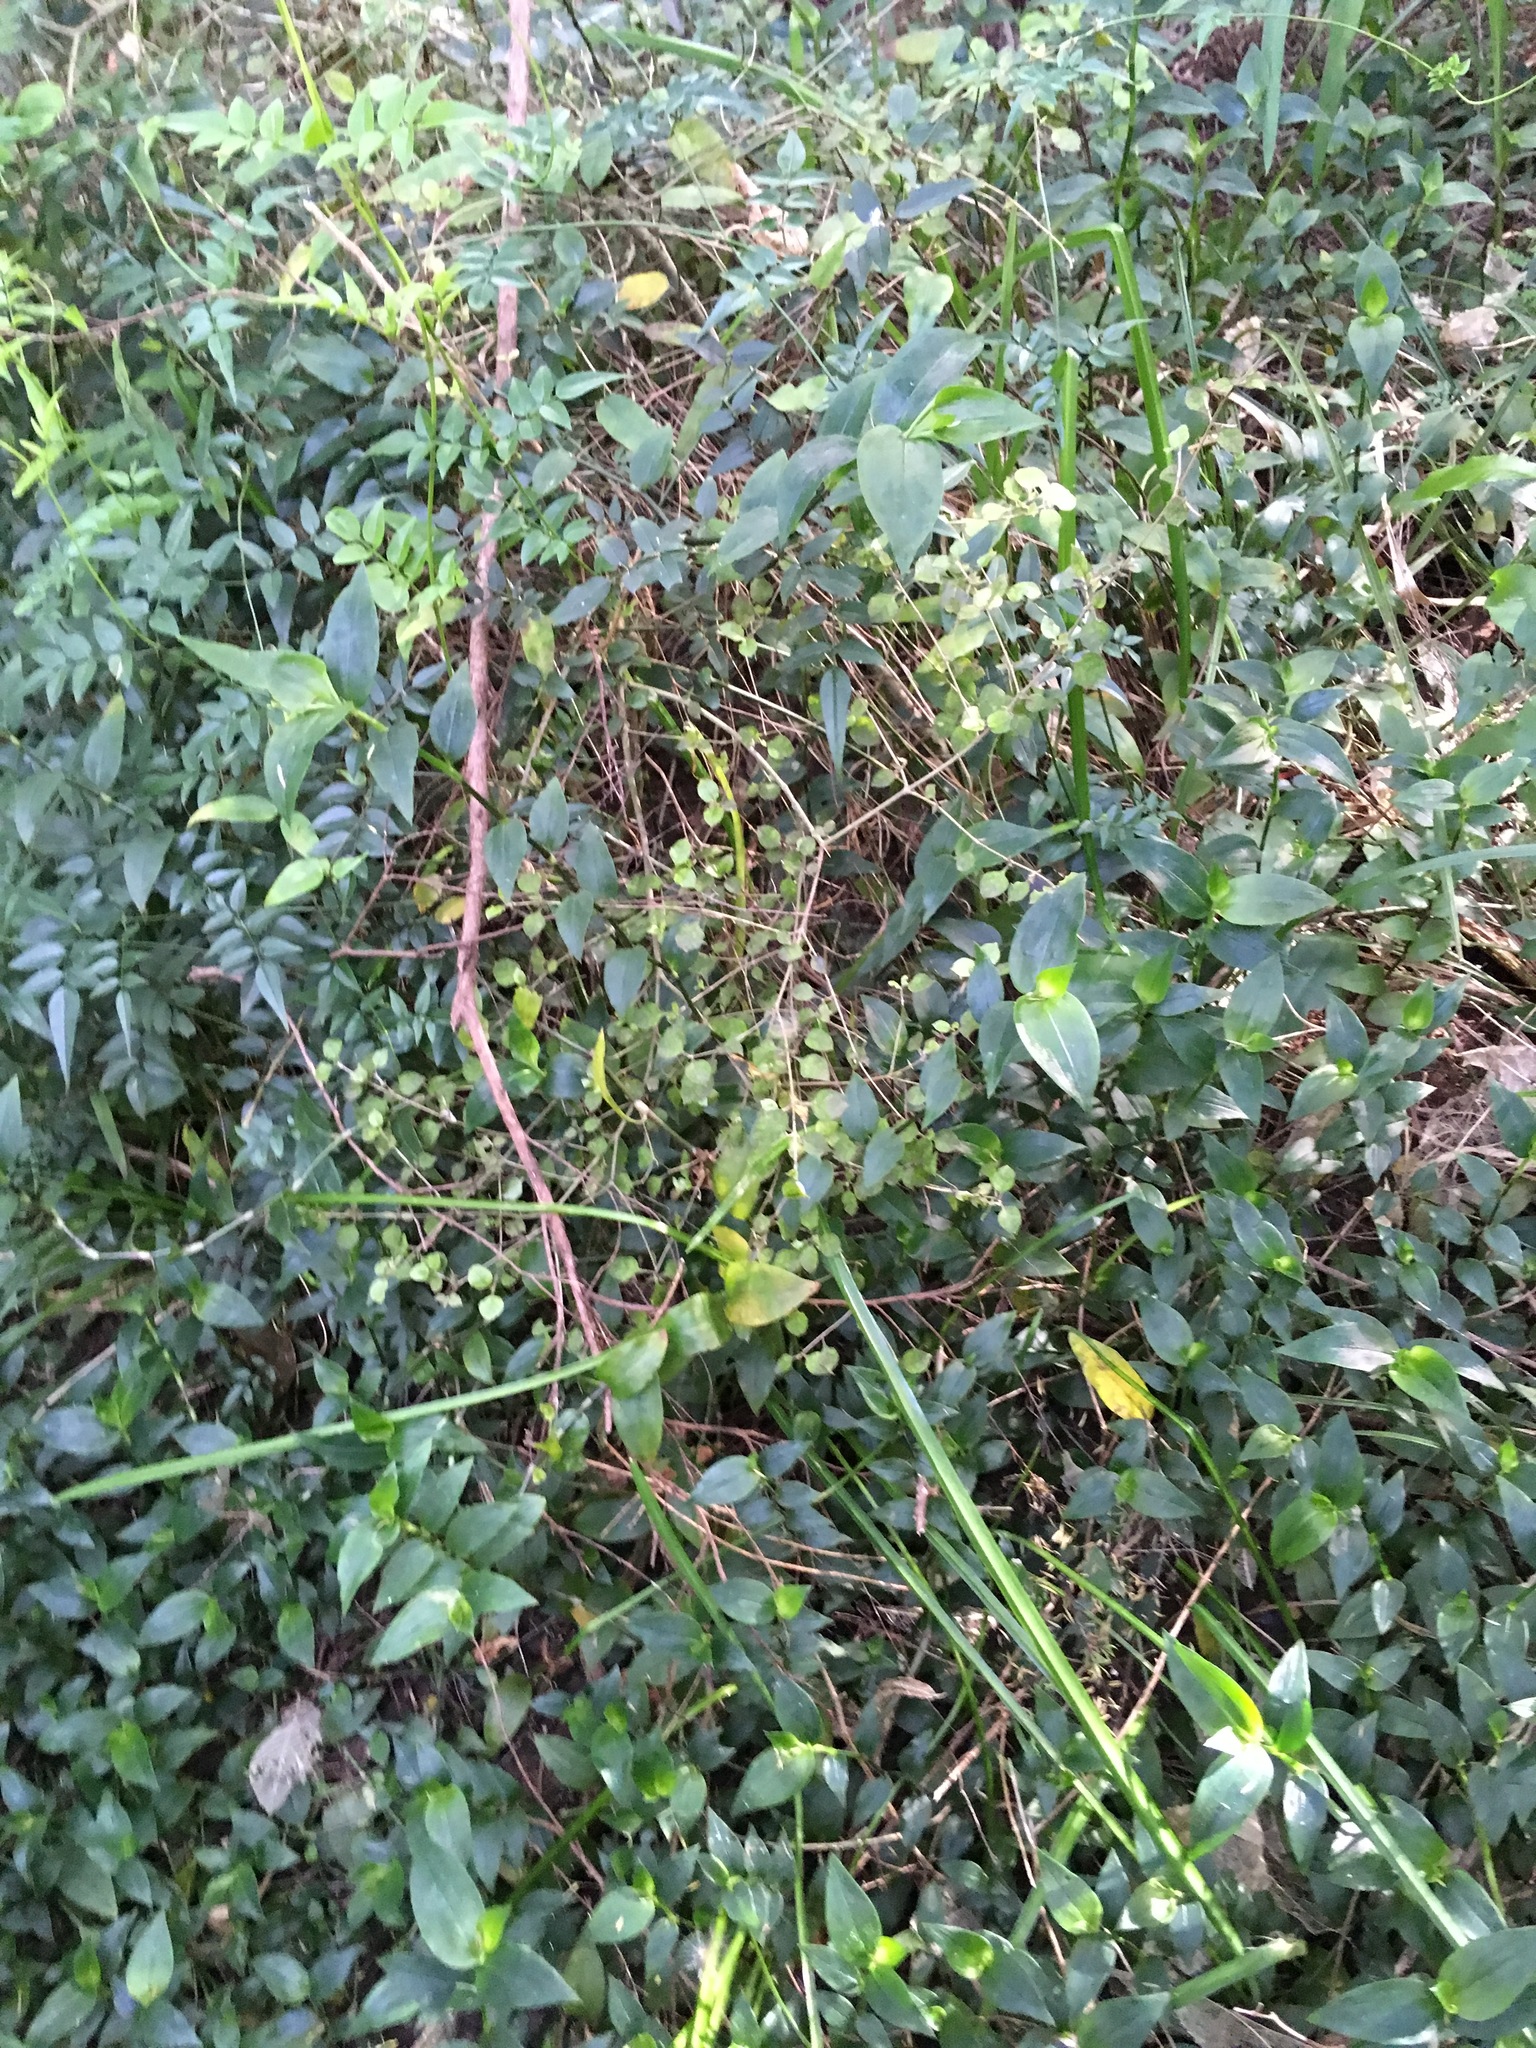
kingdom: Plantae
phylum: Tracheophyta
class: Magnoliopsida
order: Gentianales
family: Rubiaceae
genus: Coprosma
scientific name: Coprosma areolata
